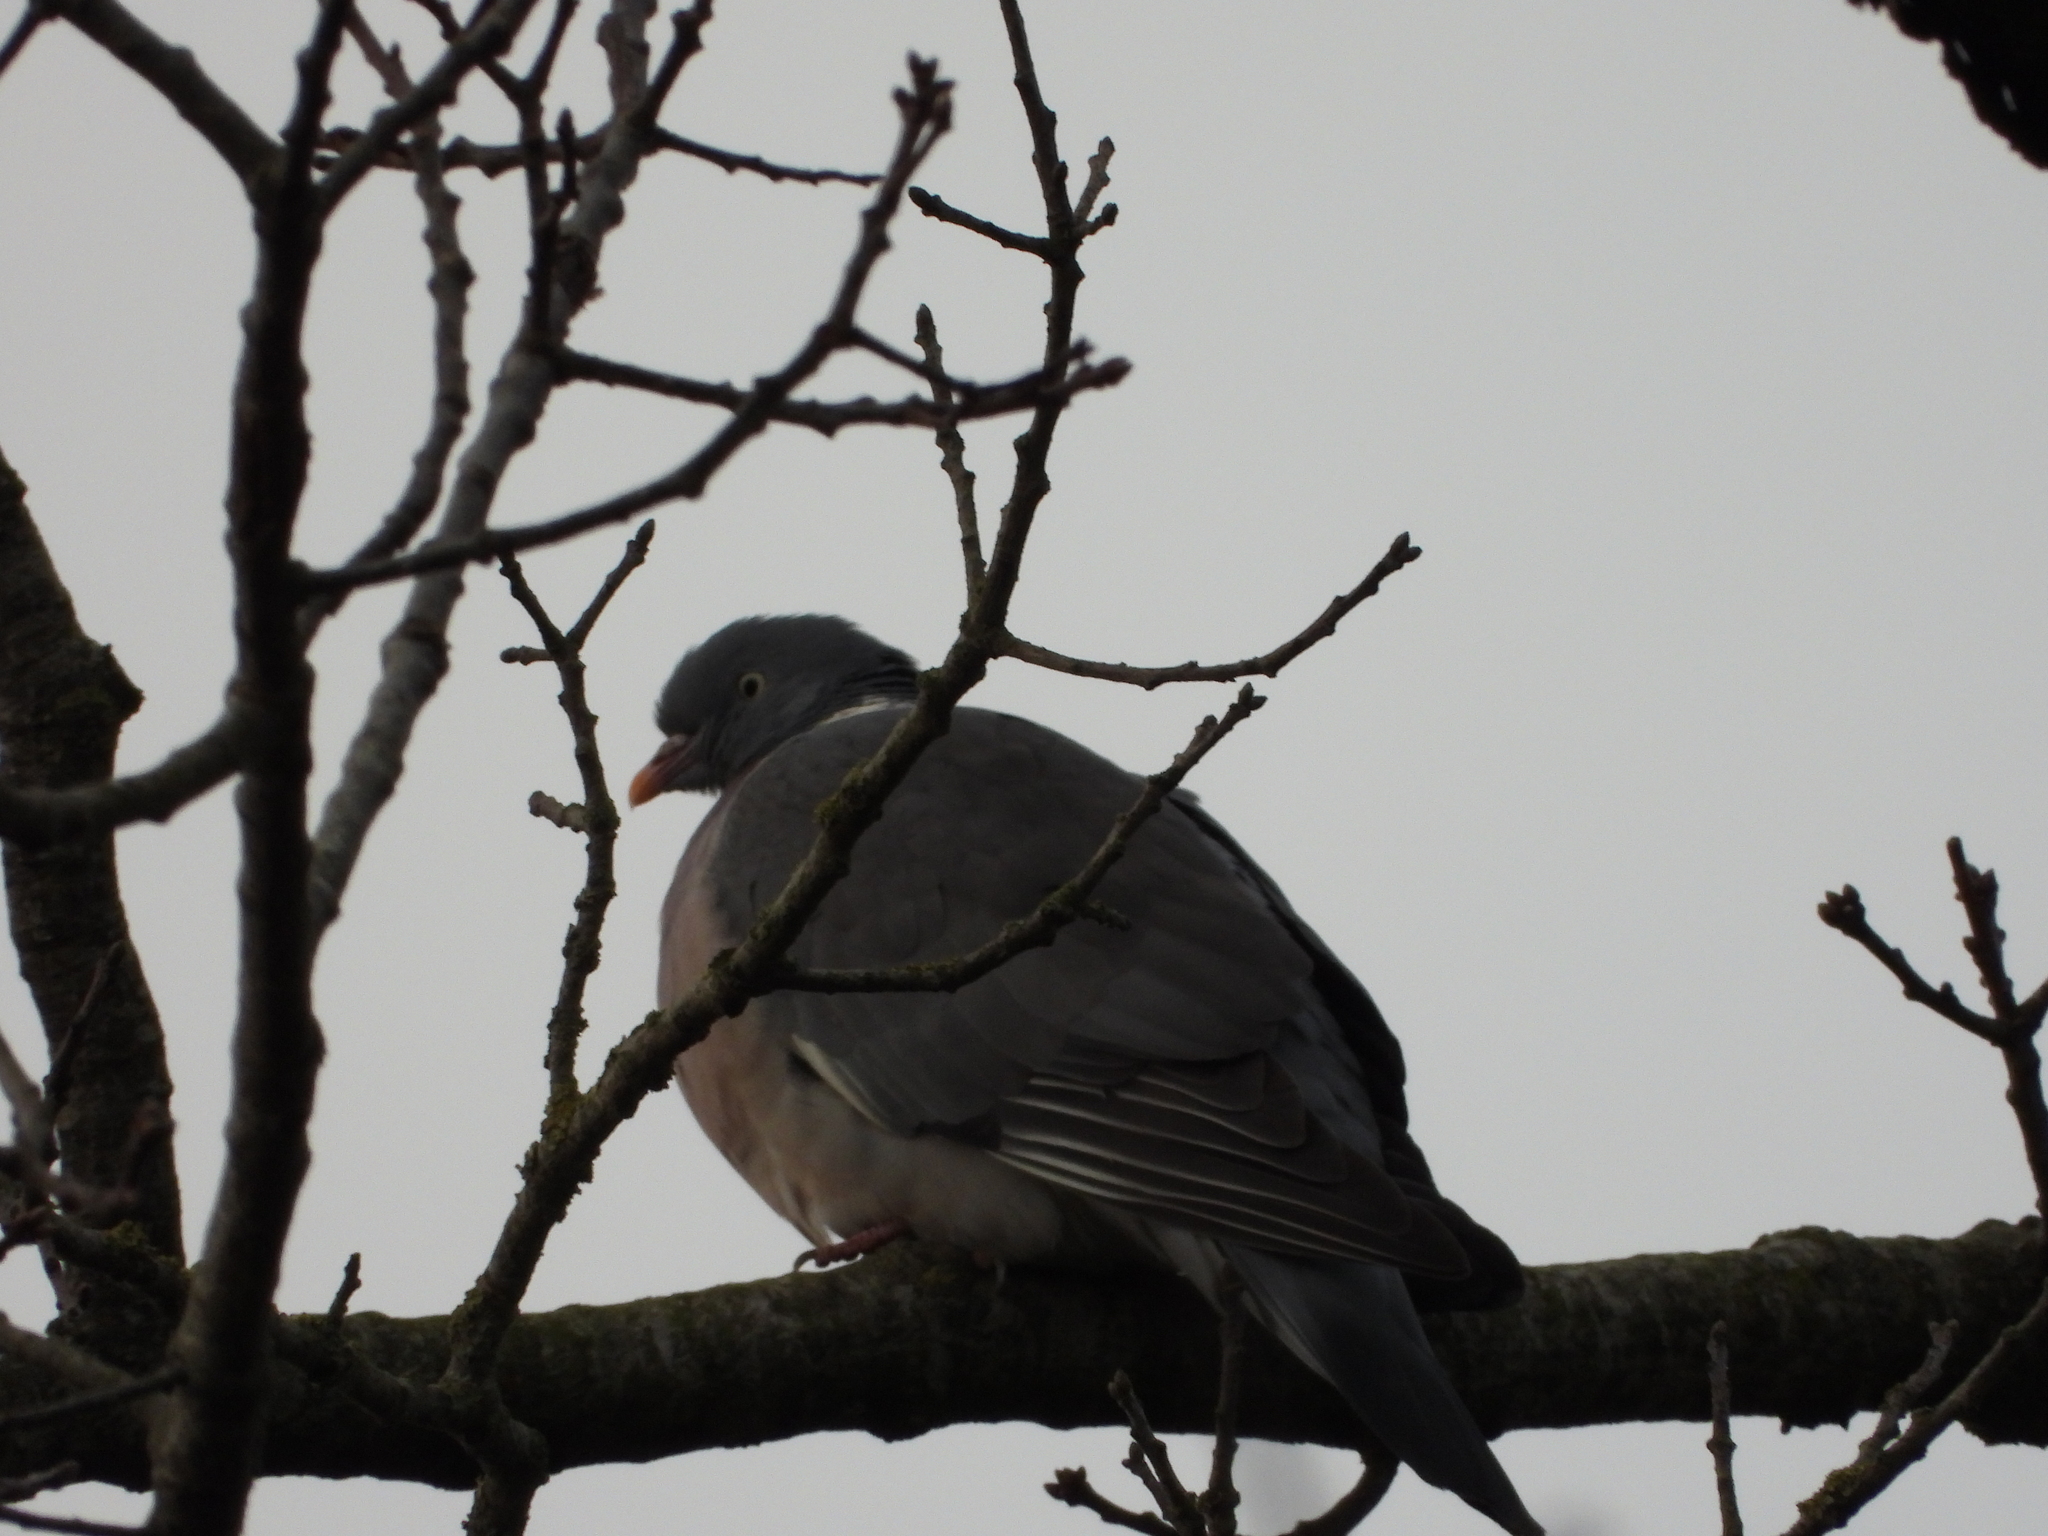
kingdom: Animalia
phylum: Chordata
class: Aves
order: Columbiformes
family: Columbidae
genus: Columba
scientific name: Columba palumbus
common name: Common wood pigeon
